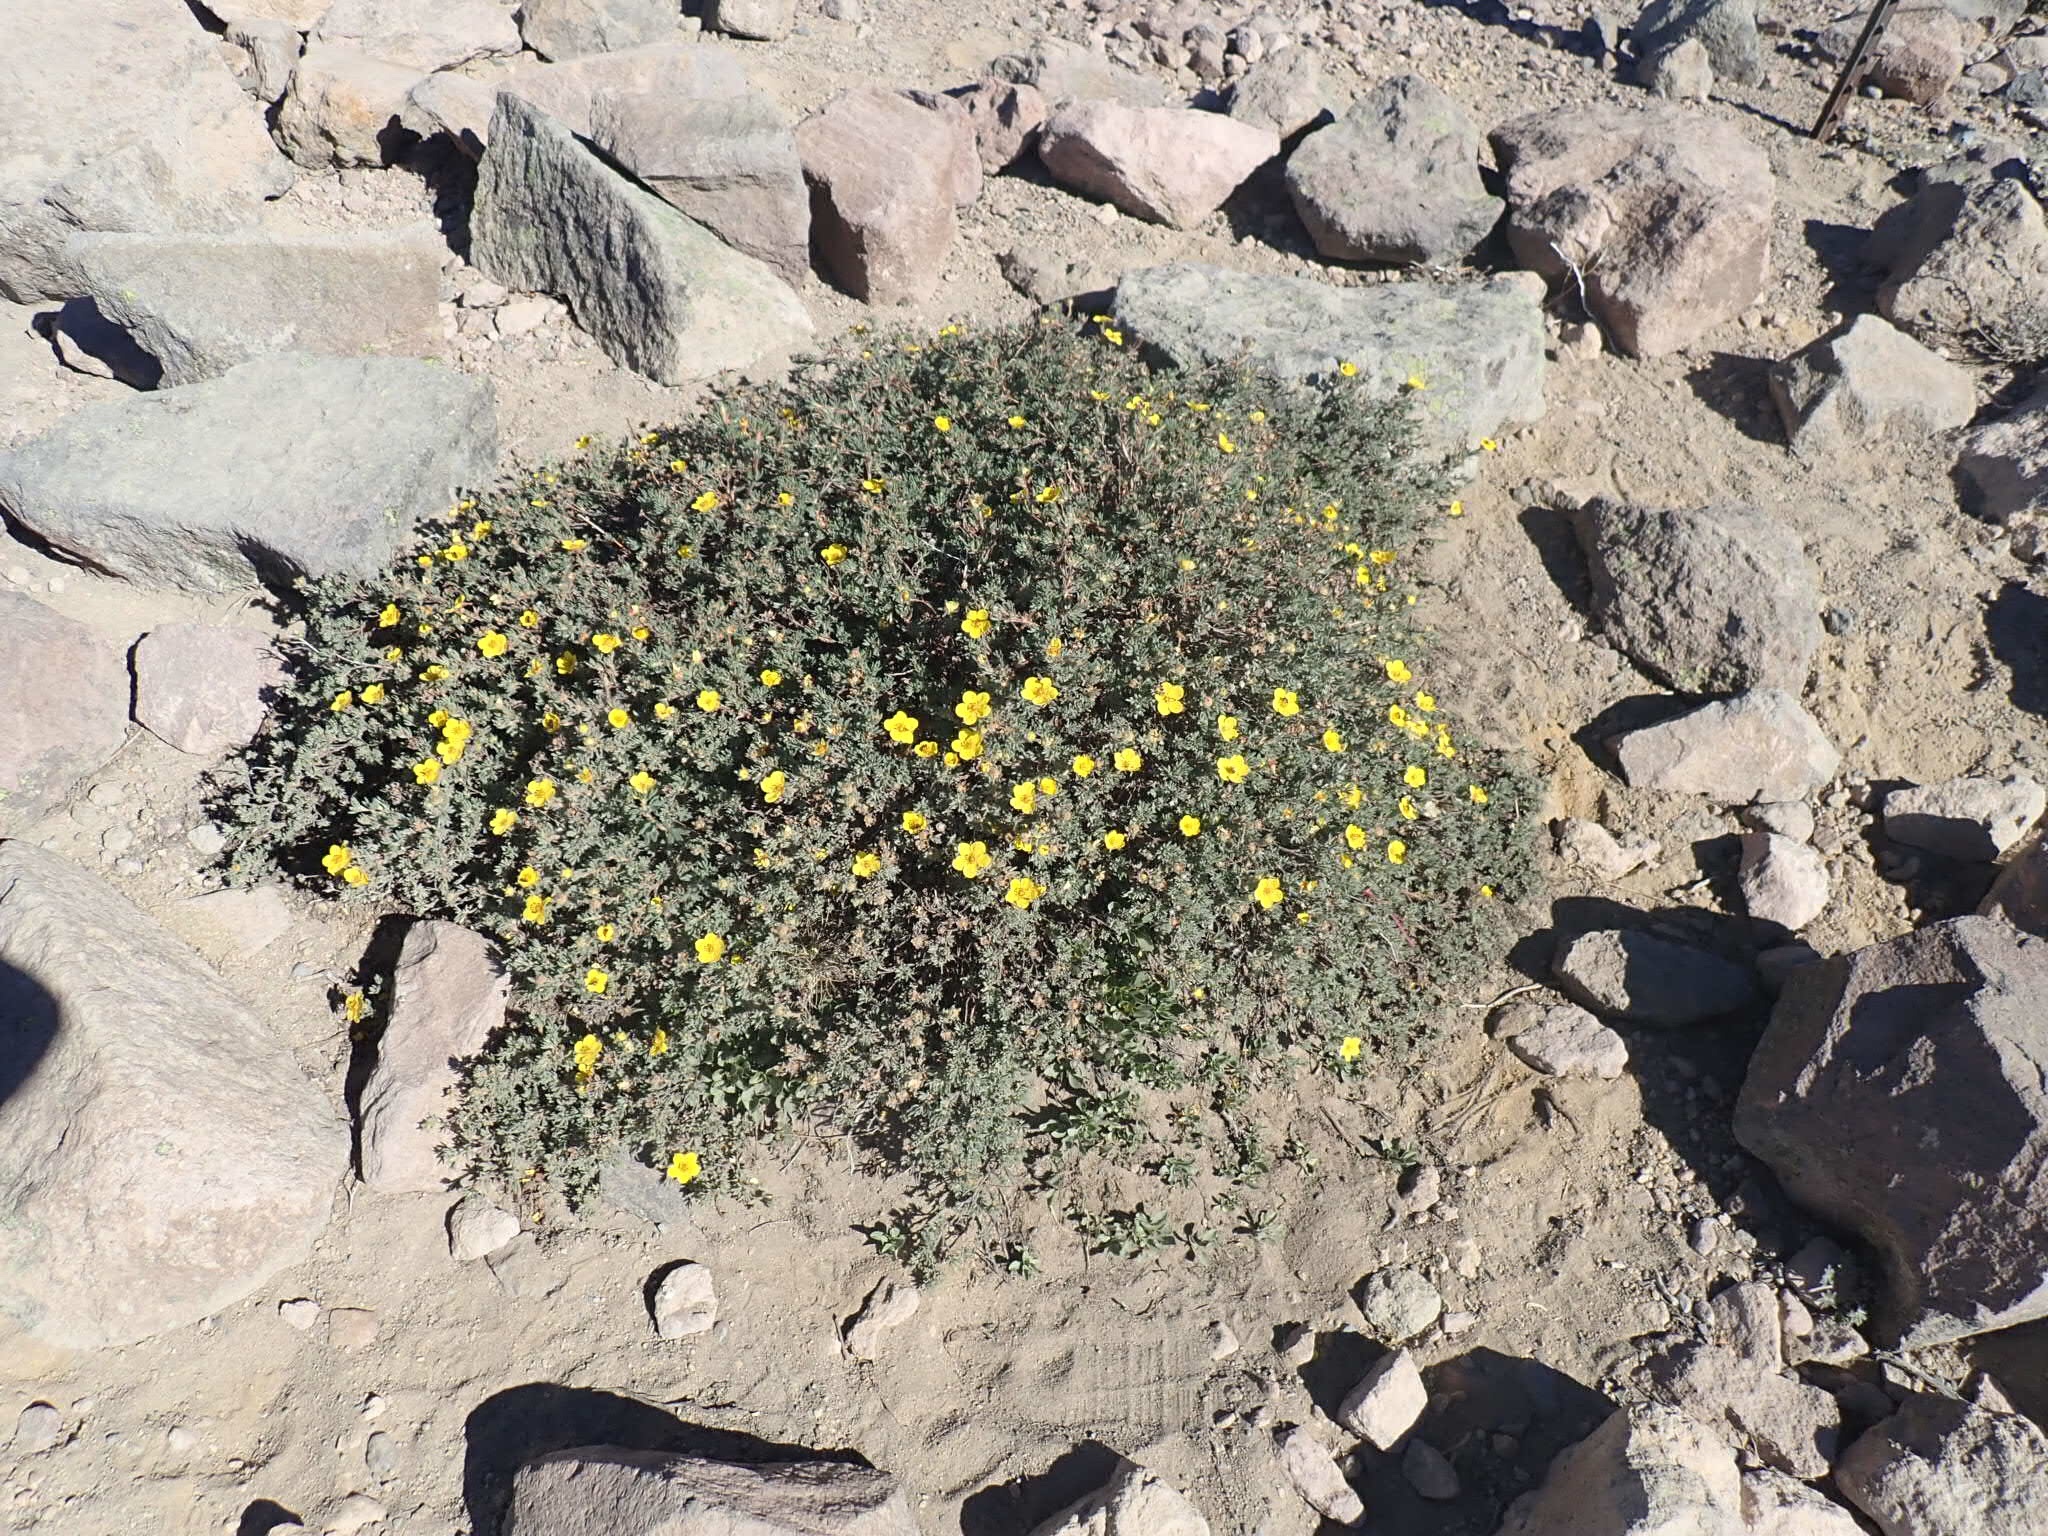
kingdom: Plantae
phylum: Tracheophyta
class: Magnoliopsida
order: Rosales
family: Rosaceae
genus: Dasiphora
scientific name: Dasiphora fruticosa
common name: Shrubby cinquefoil
